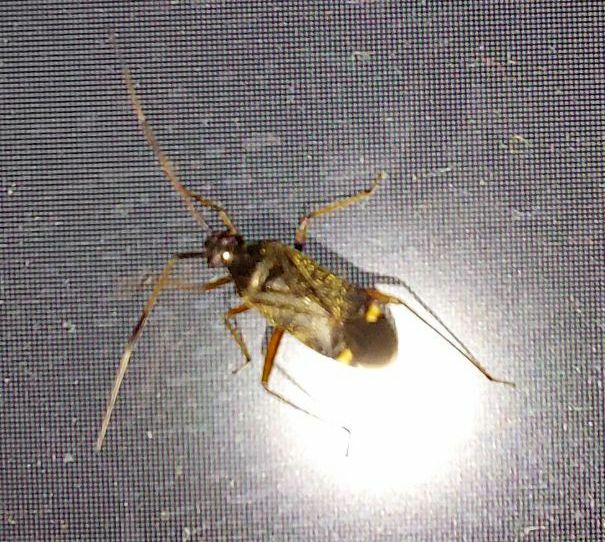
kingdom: Animalia
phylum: Arthropoda
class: Insecta
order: Hemiptera
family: Miridae
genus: Closterotomus
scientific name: Closterotomus biclavatus
